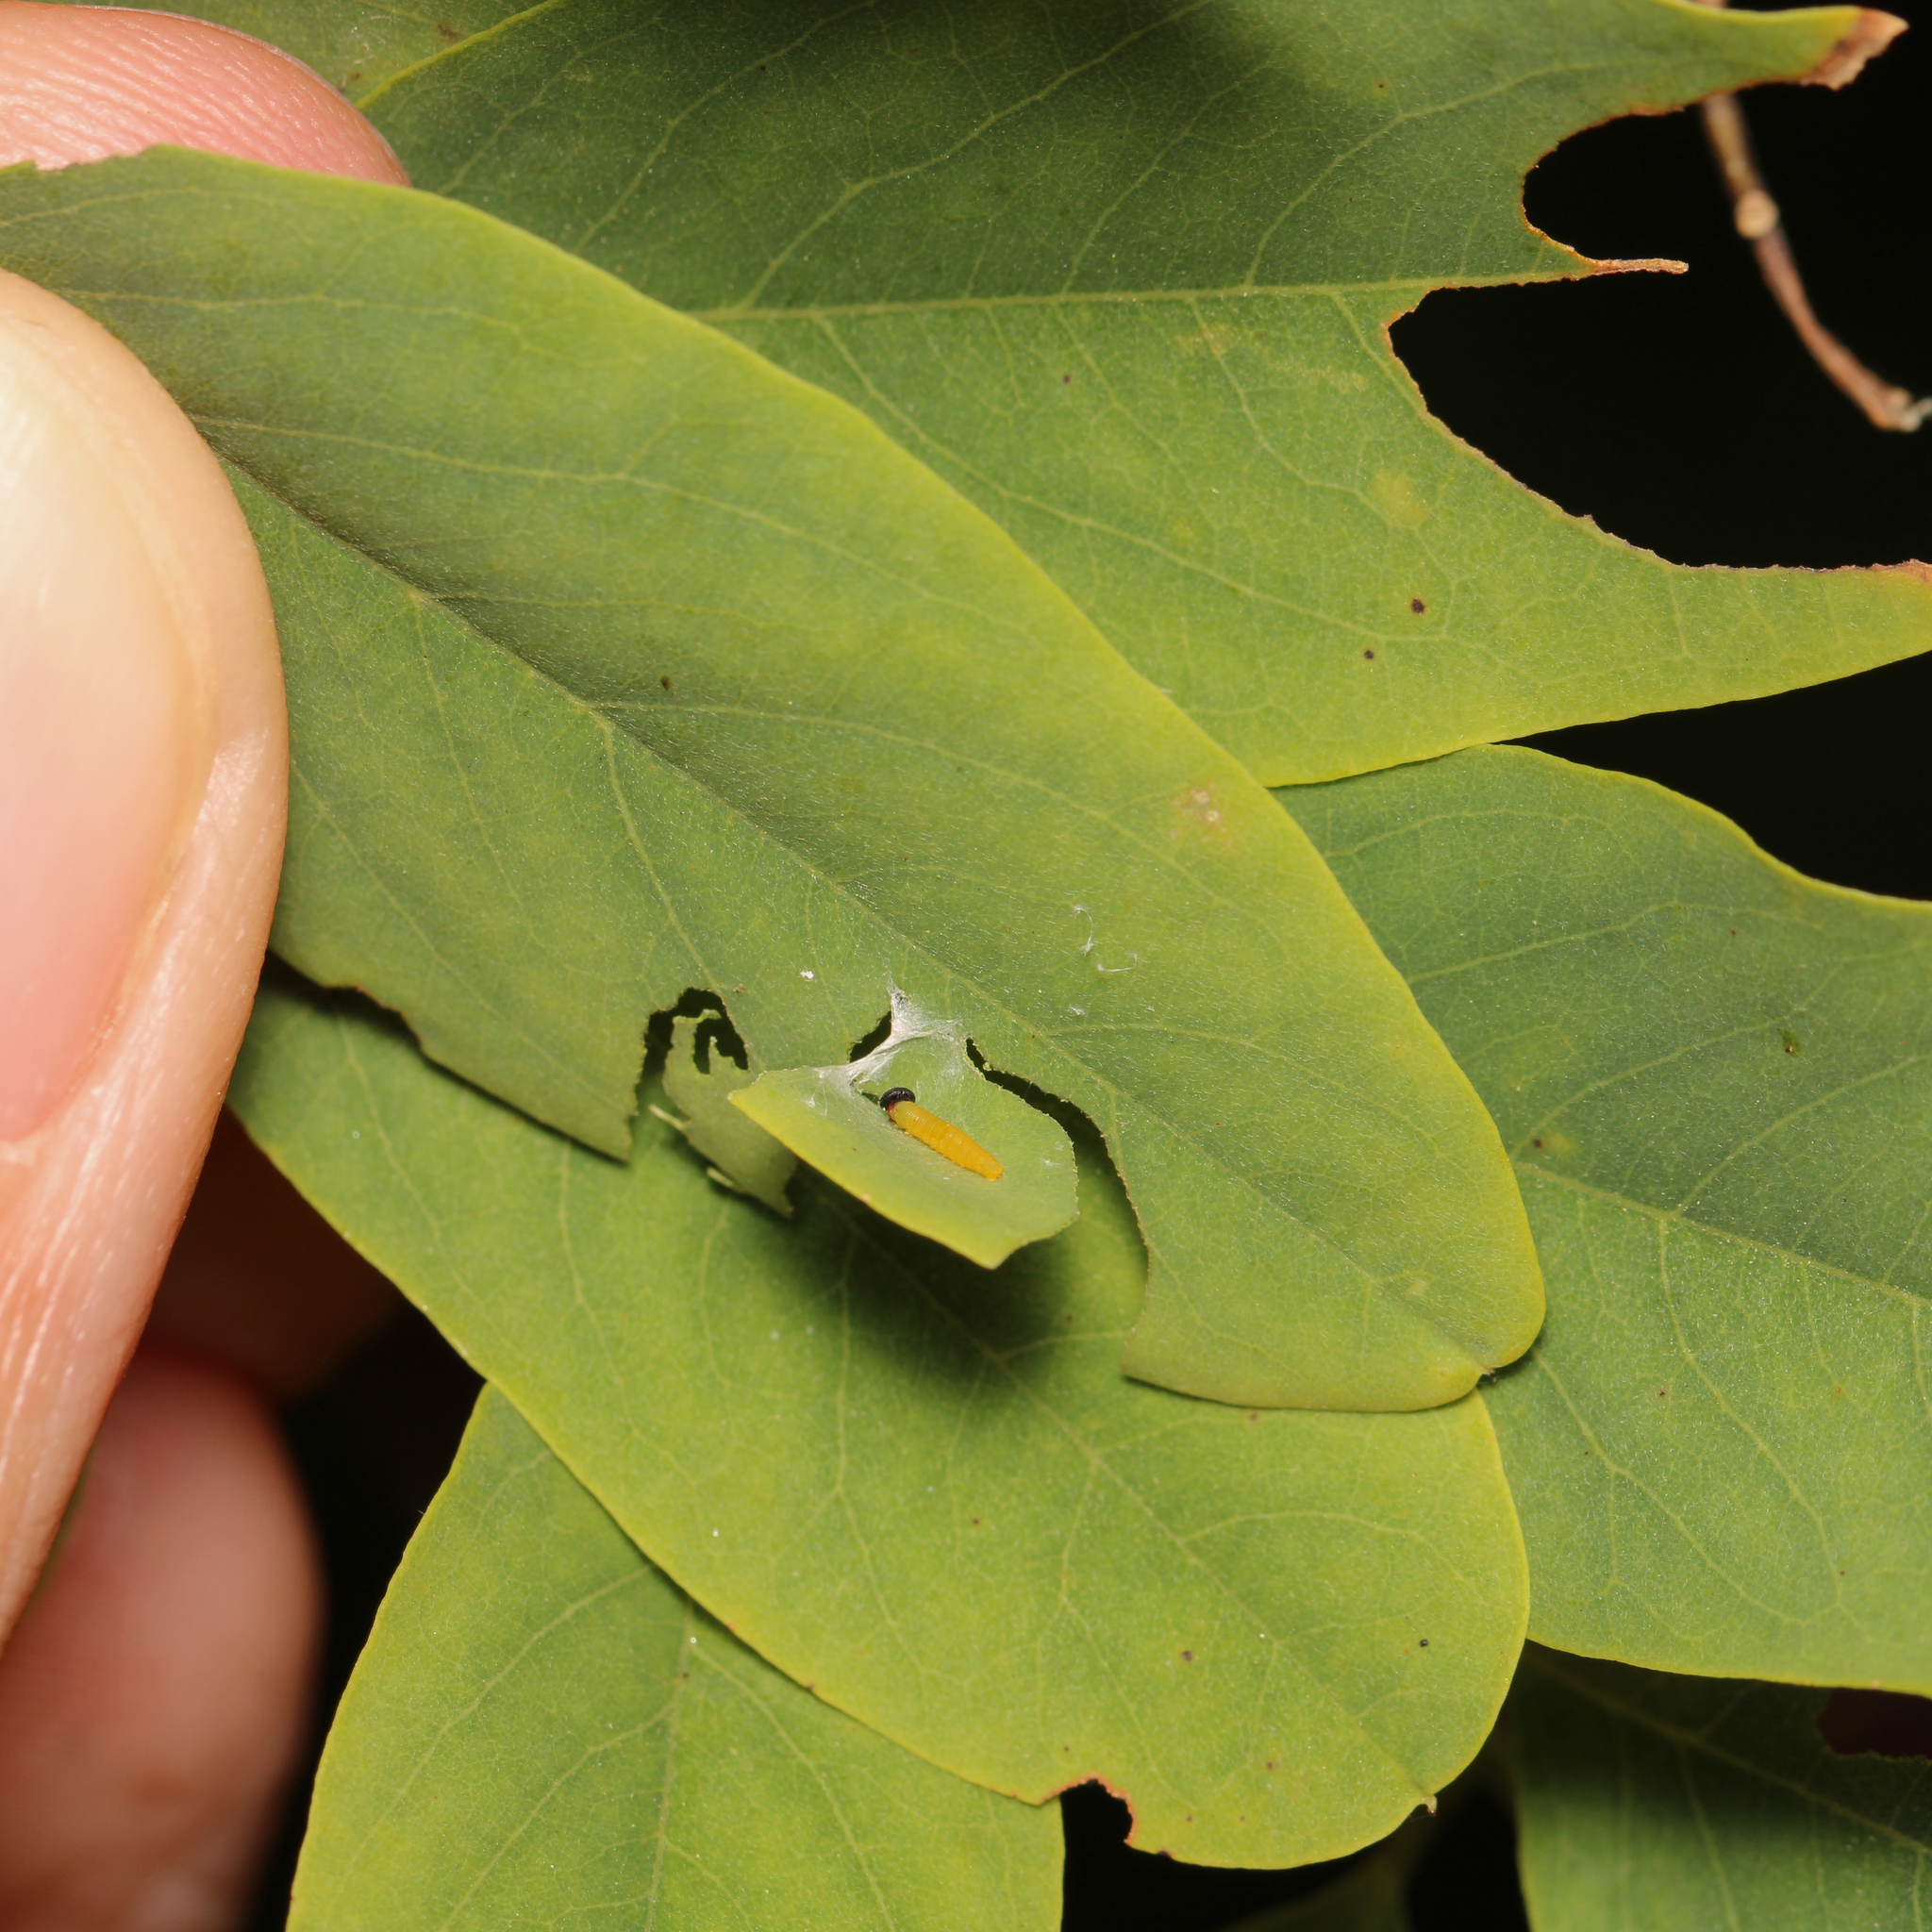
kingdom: Animalia
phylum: Arthropoda
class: Insecta
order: Lepidoptera
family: Hesperiidae
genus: Epargyreus
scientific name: Epargyreus clarus
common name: Silver-spotted skipper
